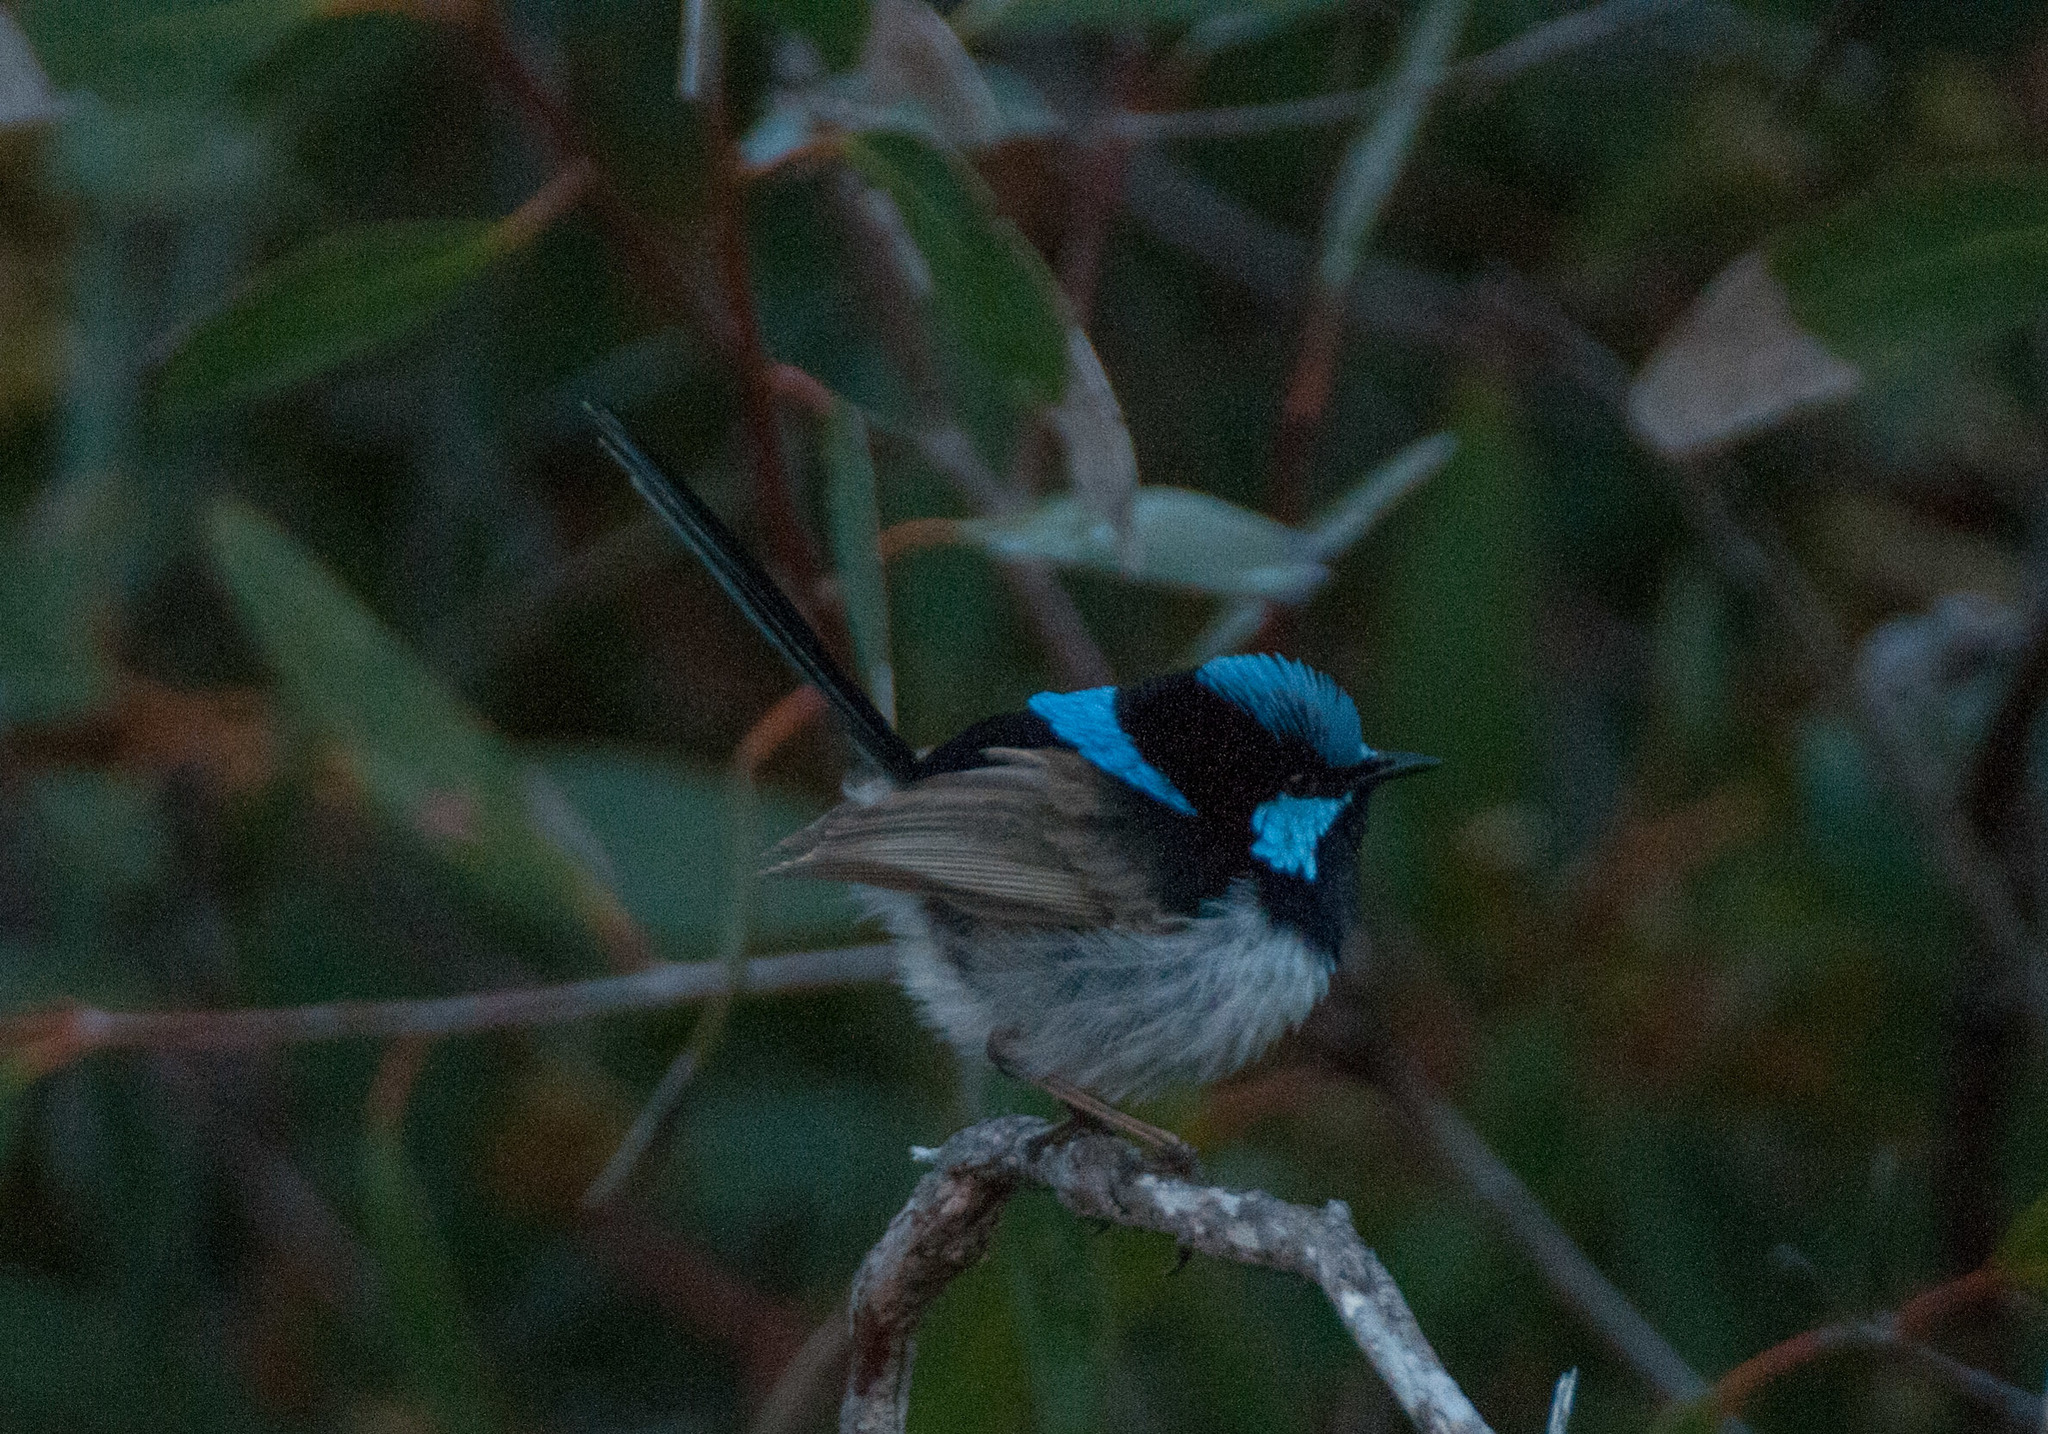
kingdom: Animalia
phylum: Chordata
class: Aves
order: Passeriformes
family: Maluridae
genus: Malurus
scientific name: Malurus cyaneus
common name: Superb fairywren
